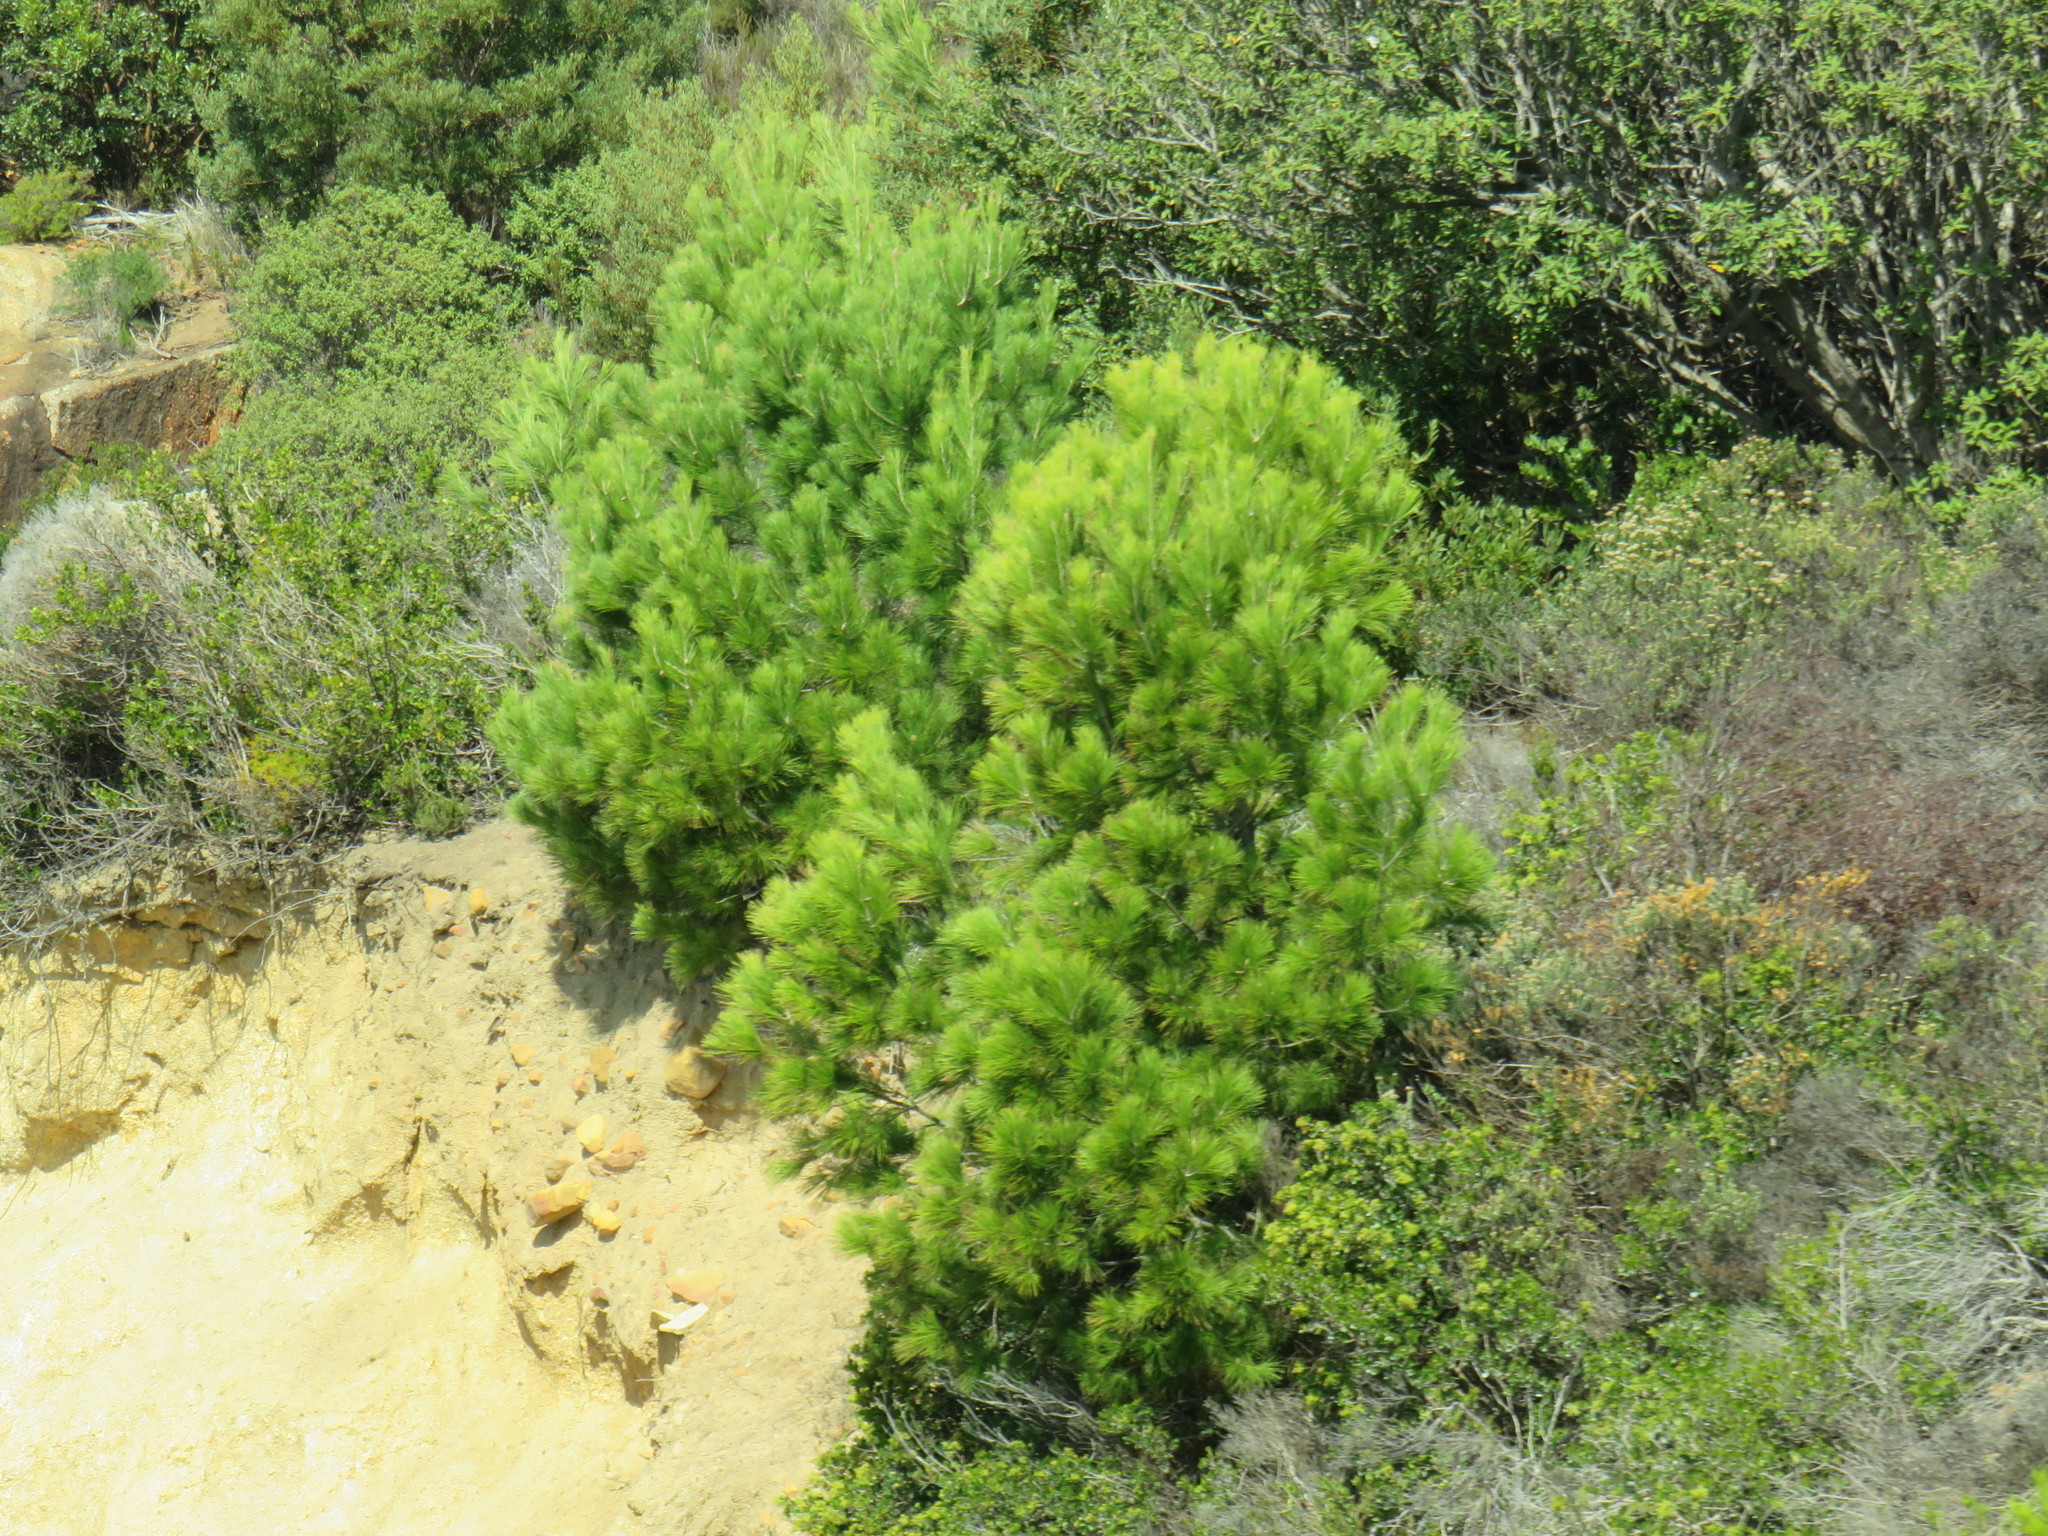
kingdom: Plantae
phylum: Tracheophyta
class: Pinopsida
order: Pinales
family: Pinaceae
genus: Pinus
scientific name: Pinus halepensis
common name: Aleppo pine
